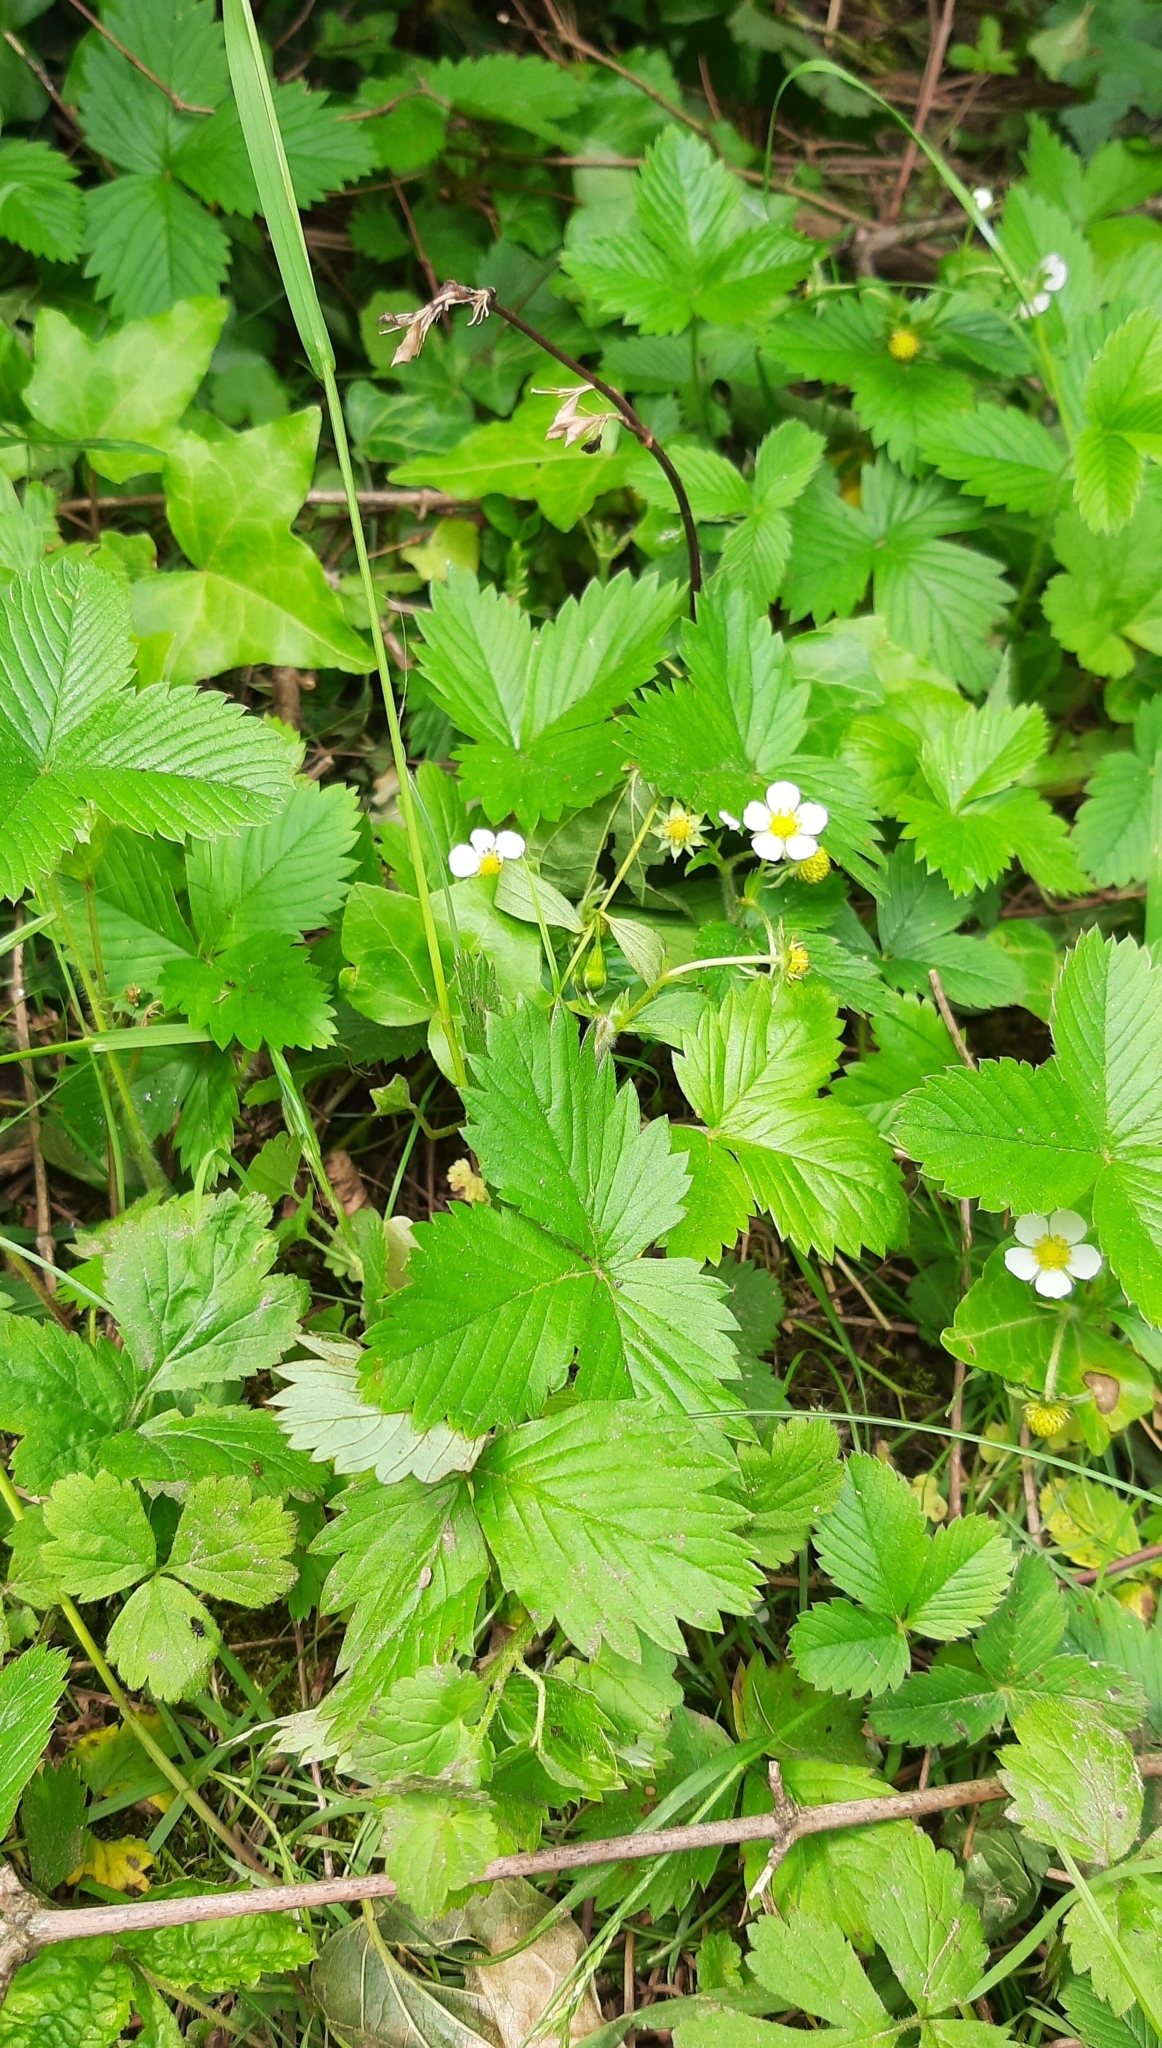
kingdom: Plantae
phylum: Tracheophyta
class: Magnoliopsida
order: Rosales
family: Rosaceae
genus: Fragaria
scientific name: Fragaria vesca
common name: Wild strawberry
